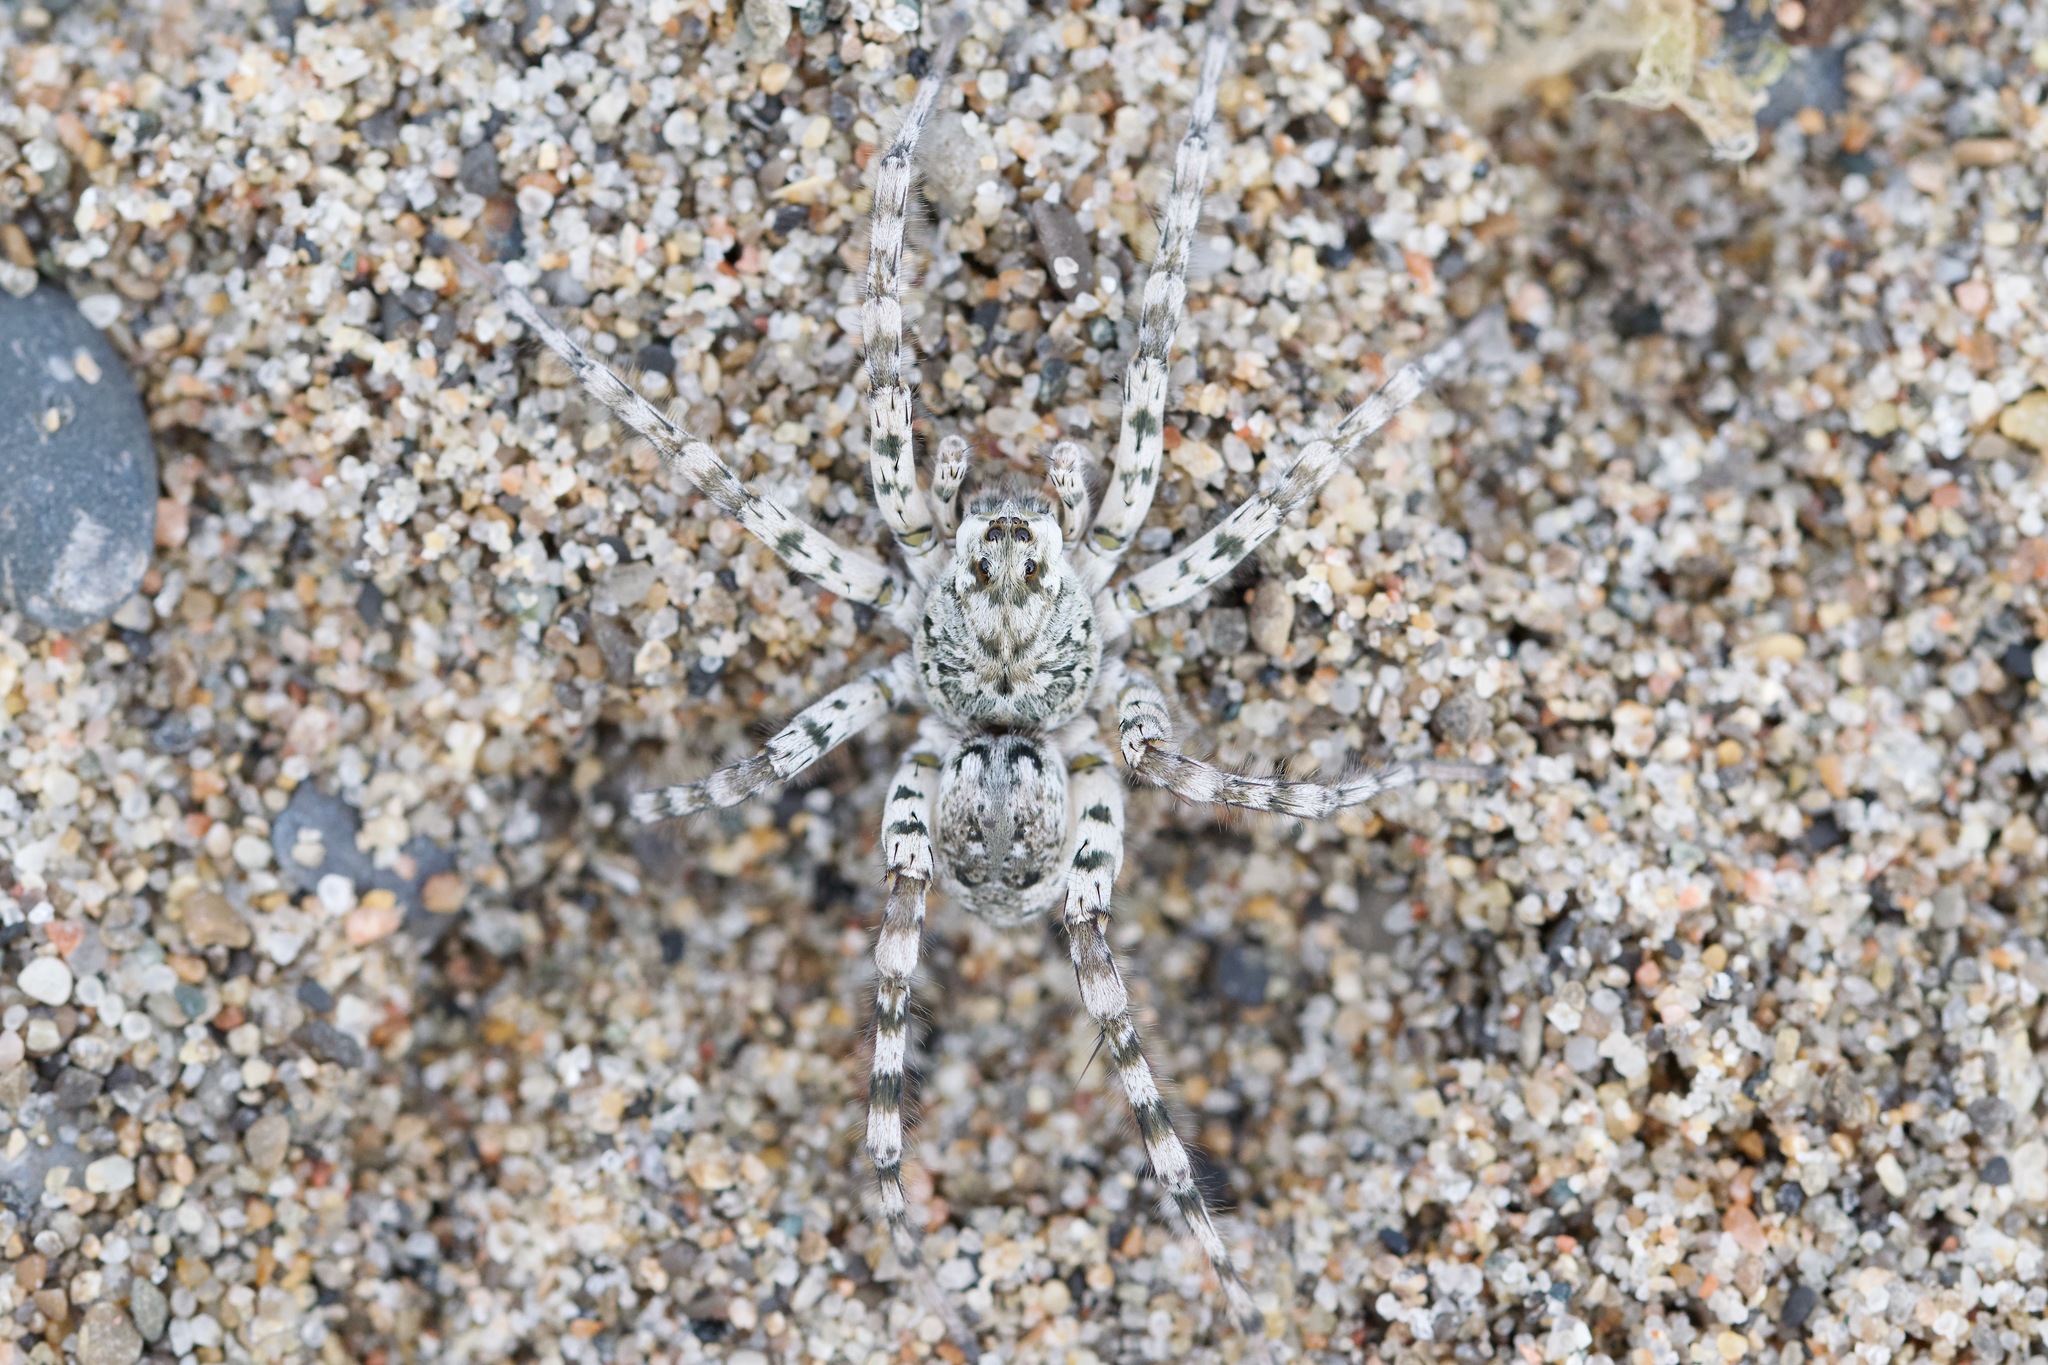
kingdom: Animalia
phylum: Arthropoda
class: Arachnida
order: Araneae
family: Lycosidae
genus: Arctosa
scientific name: Arctosa littoralis
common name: Wolf spiders
